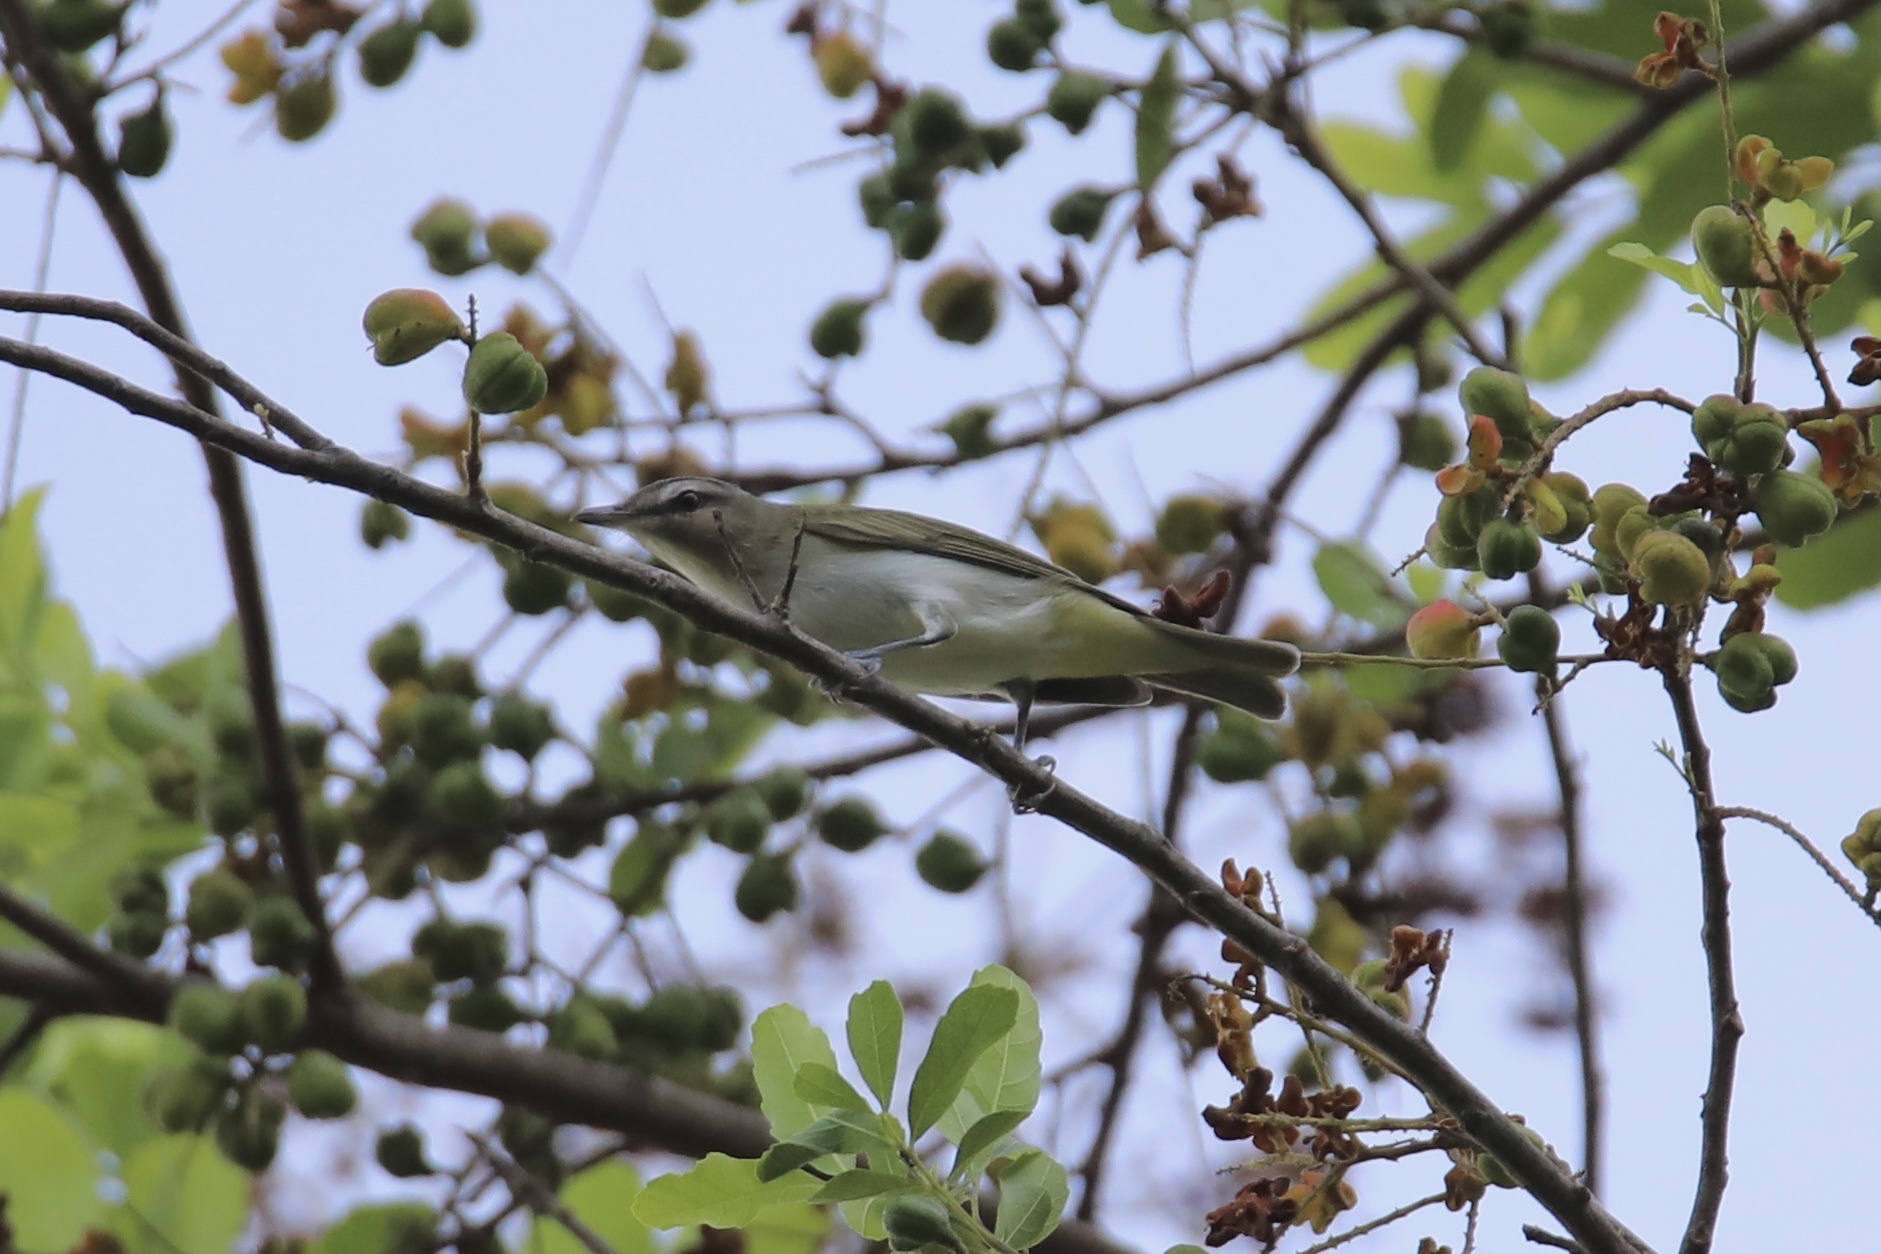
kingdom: Animalia
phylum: Chordata
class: Aves
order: Passeriformes
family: Vireonidae
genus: Vireo
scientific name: Vireo olivaceus
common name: Red-eyed vireo
